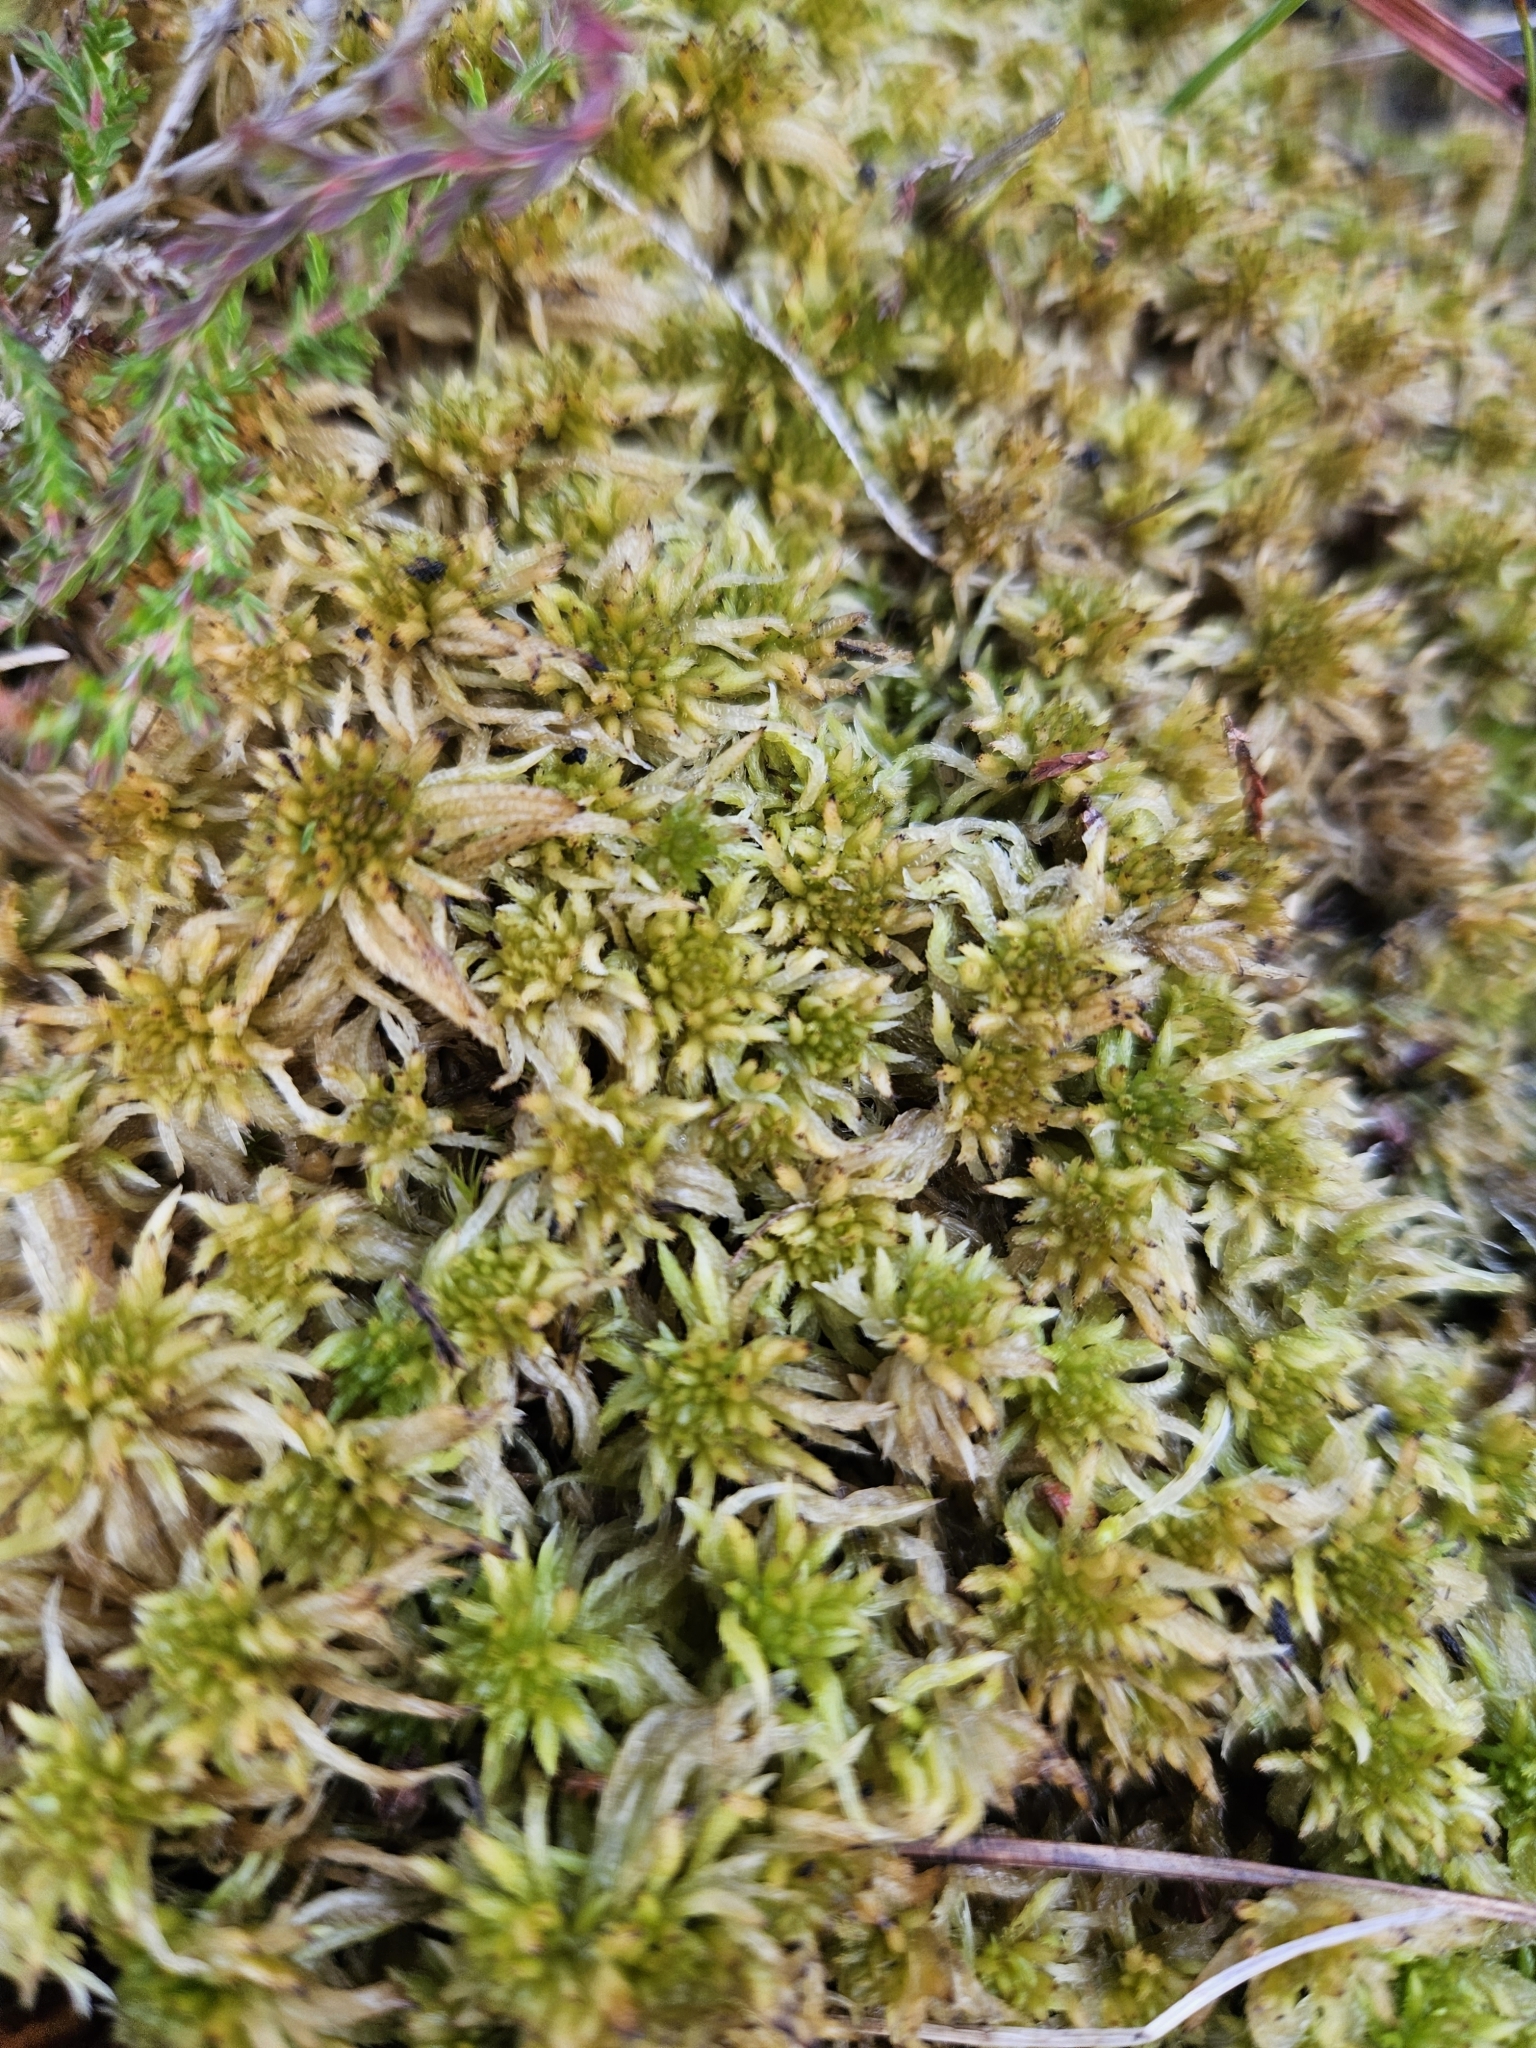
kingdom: Plantae
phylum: Bryophyta
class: Sphagnopsida
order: Sphagnales
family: Sphagnaceae
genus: Sphagnum
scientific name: Sphagnum fimbriatum
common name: Fringed peat moss
